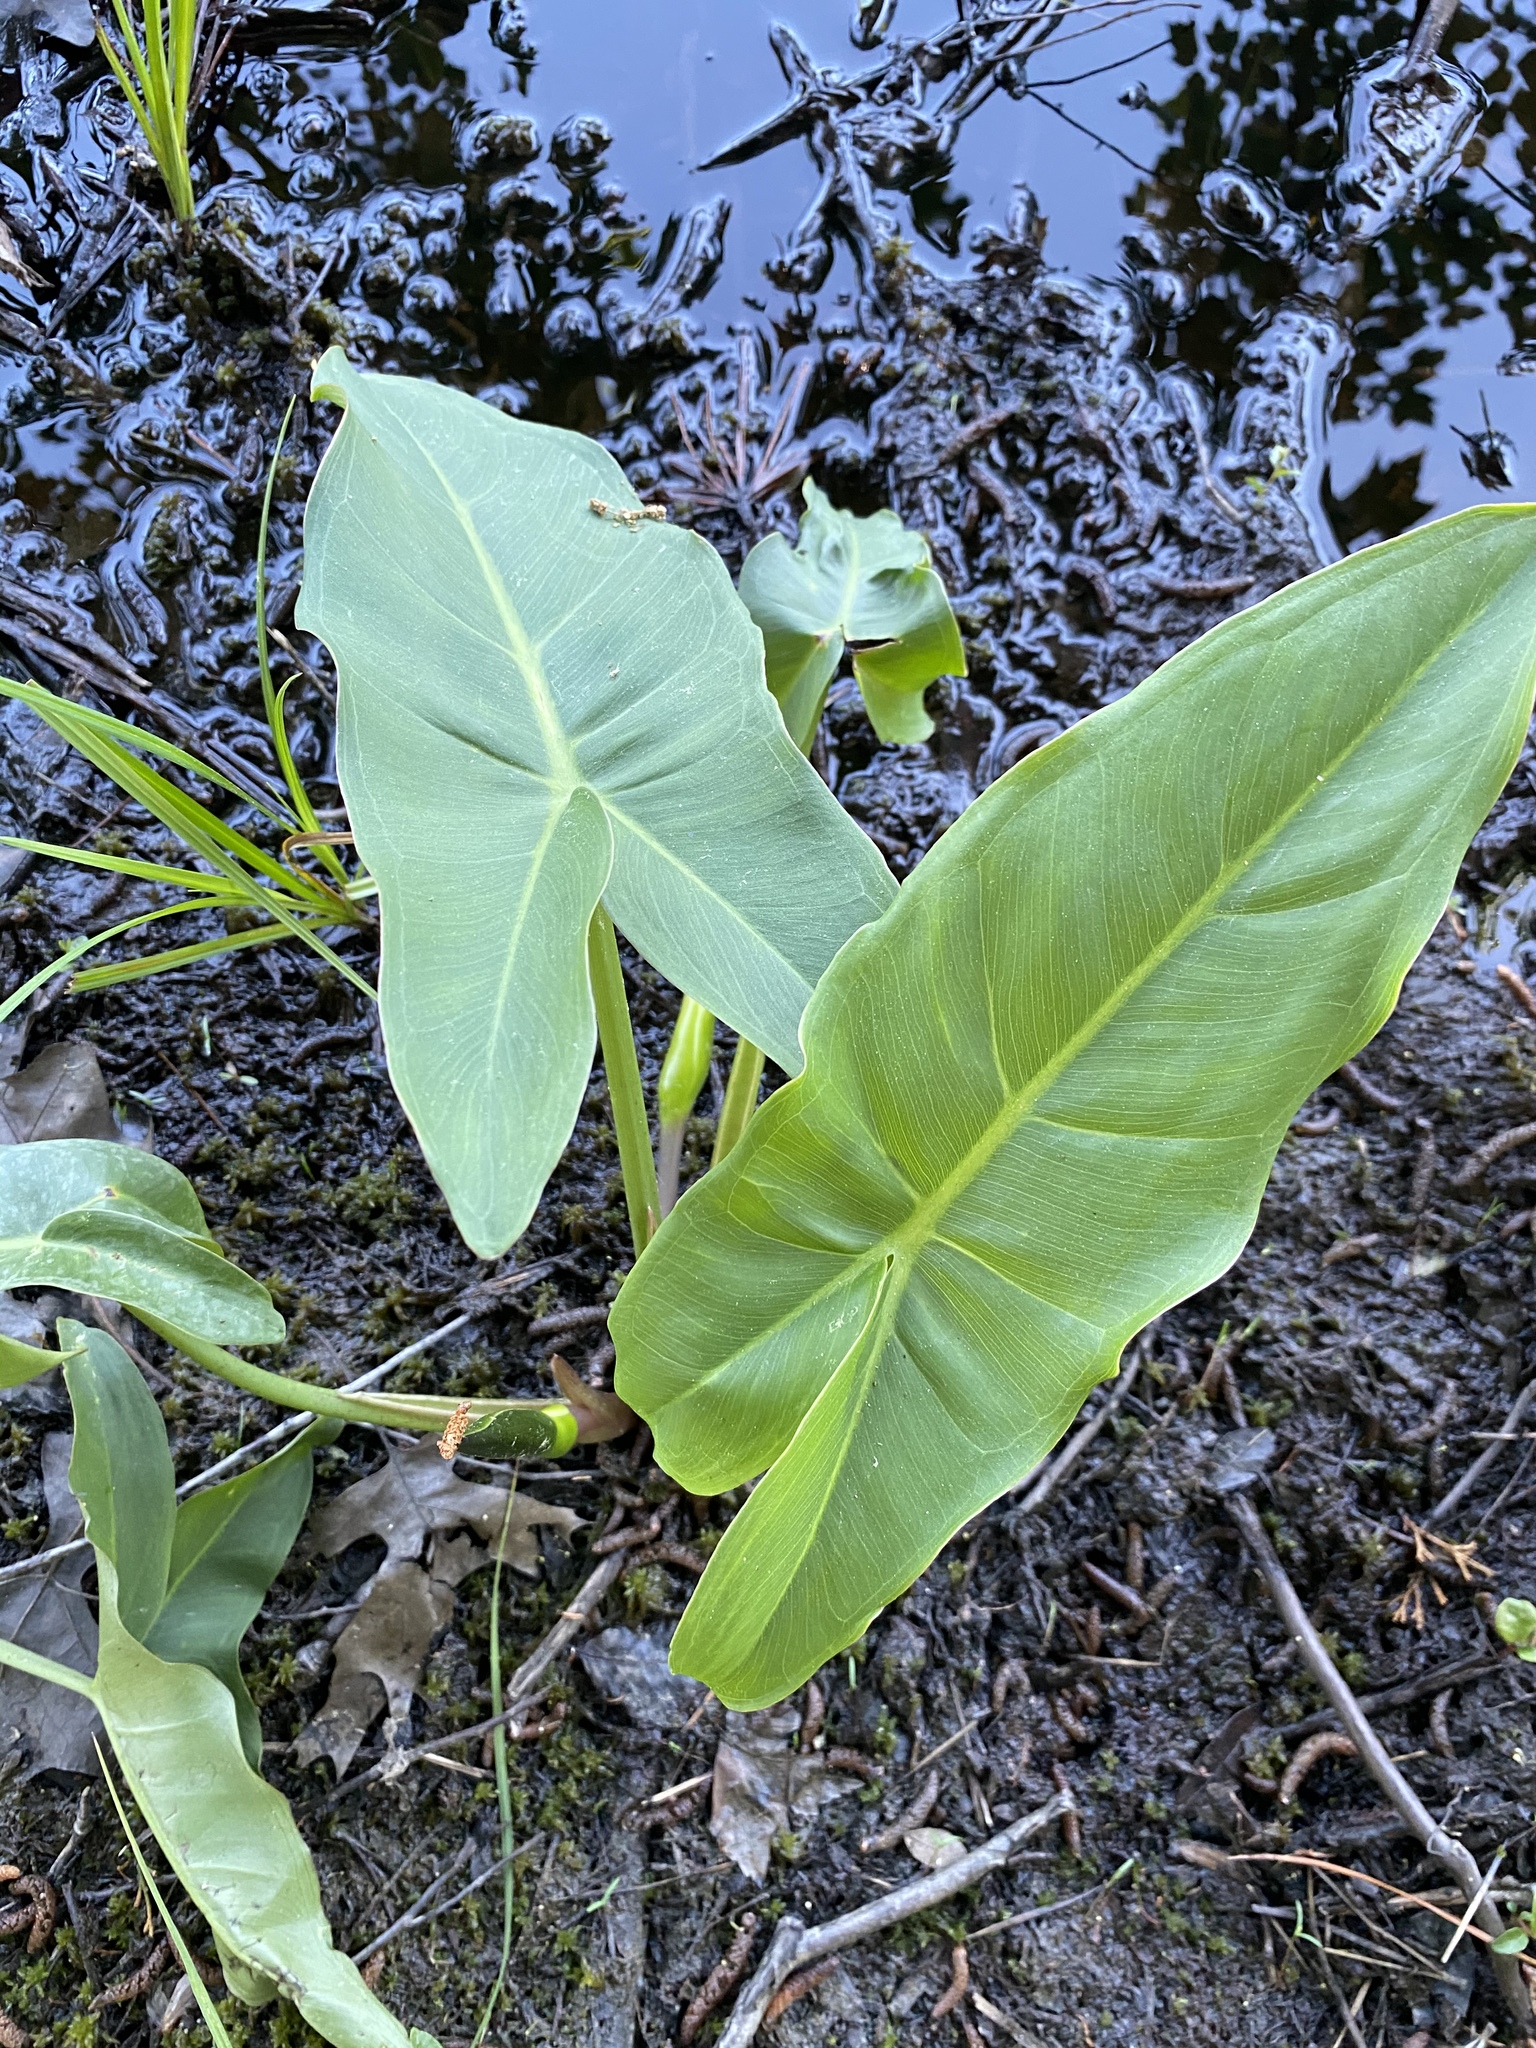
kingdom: Plantae
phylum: Tracheophyta
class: Liliopsida
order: Alismatales
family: Araceae
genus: Peltandra
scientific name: Peltandra virginica
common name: Arrow arum
